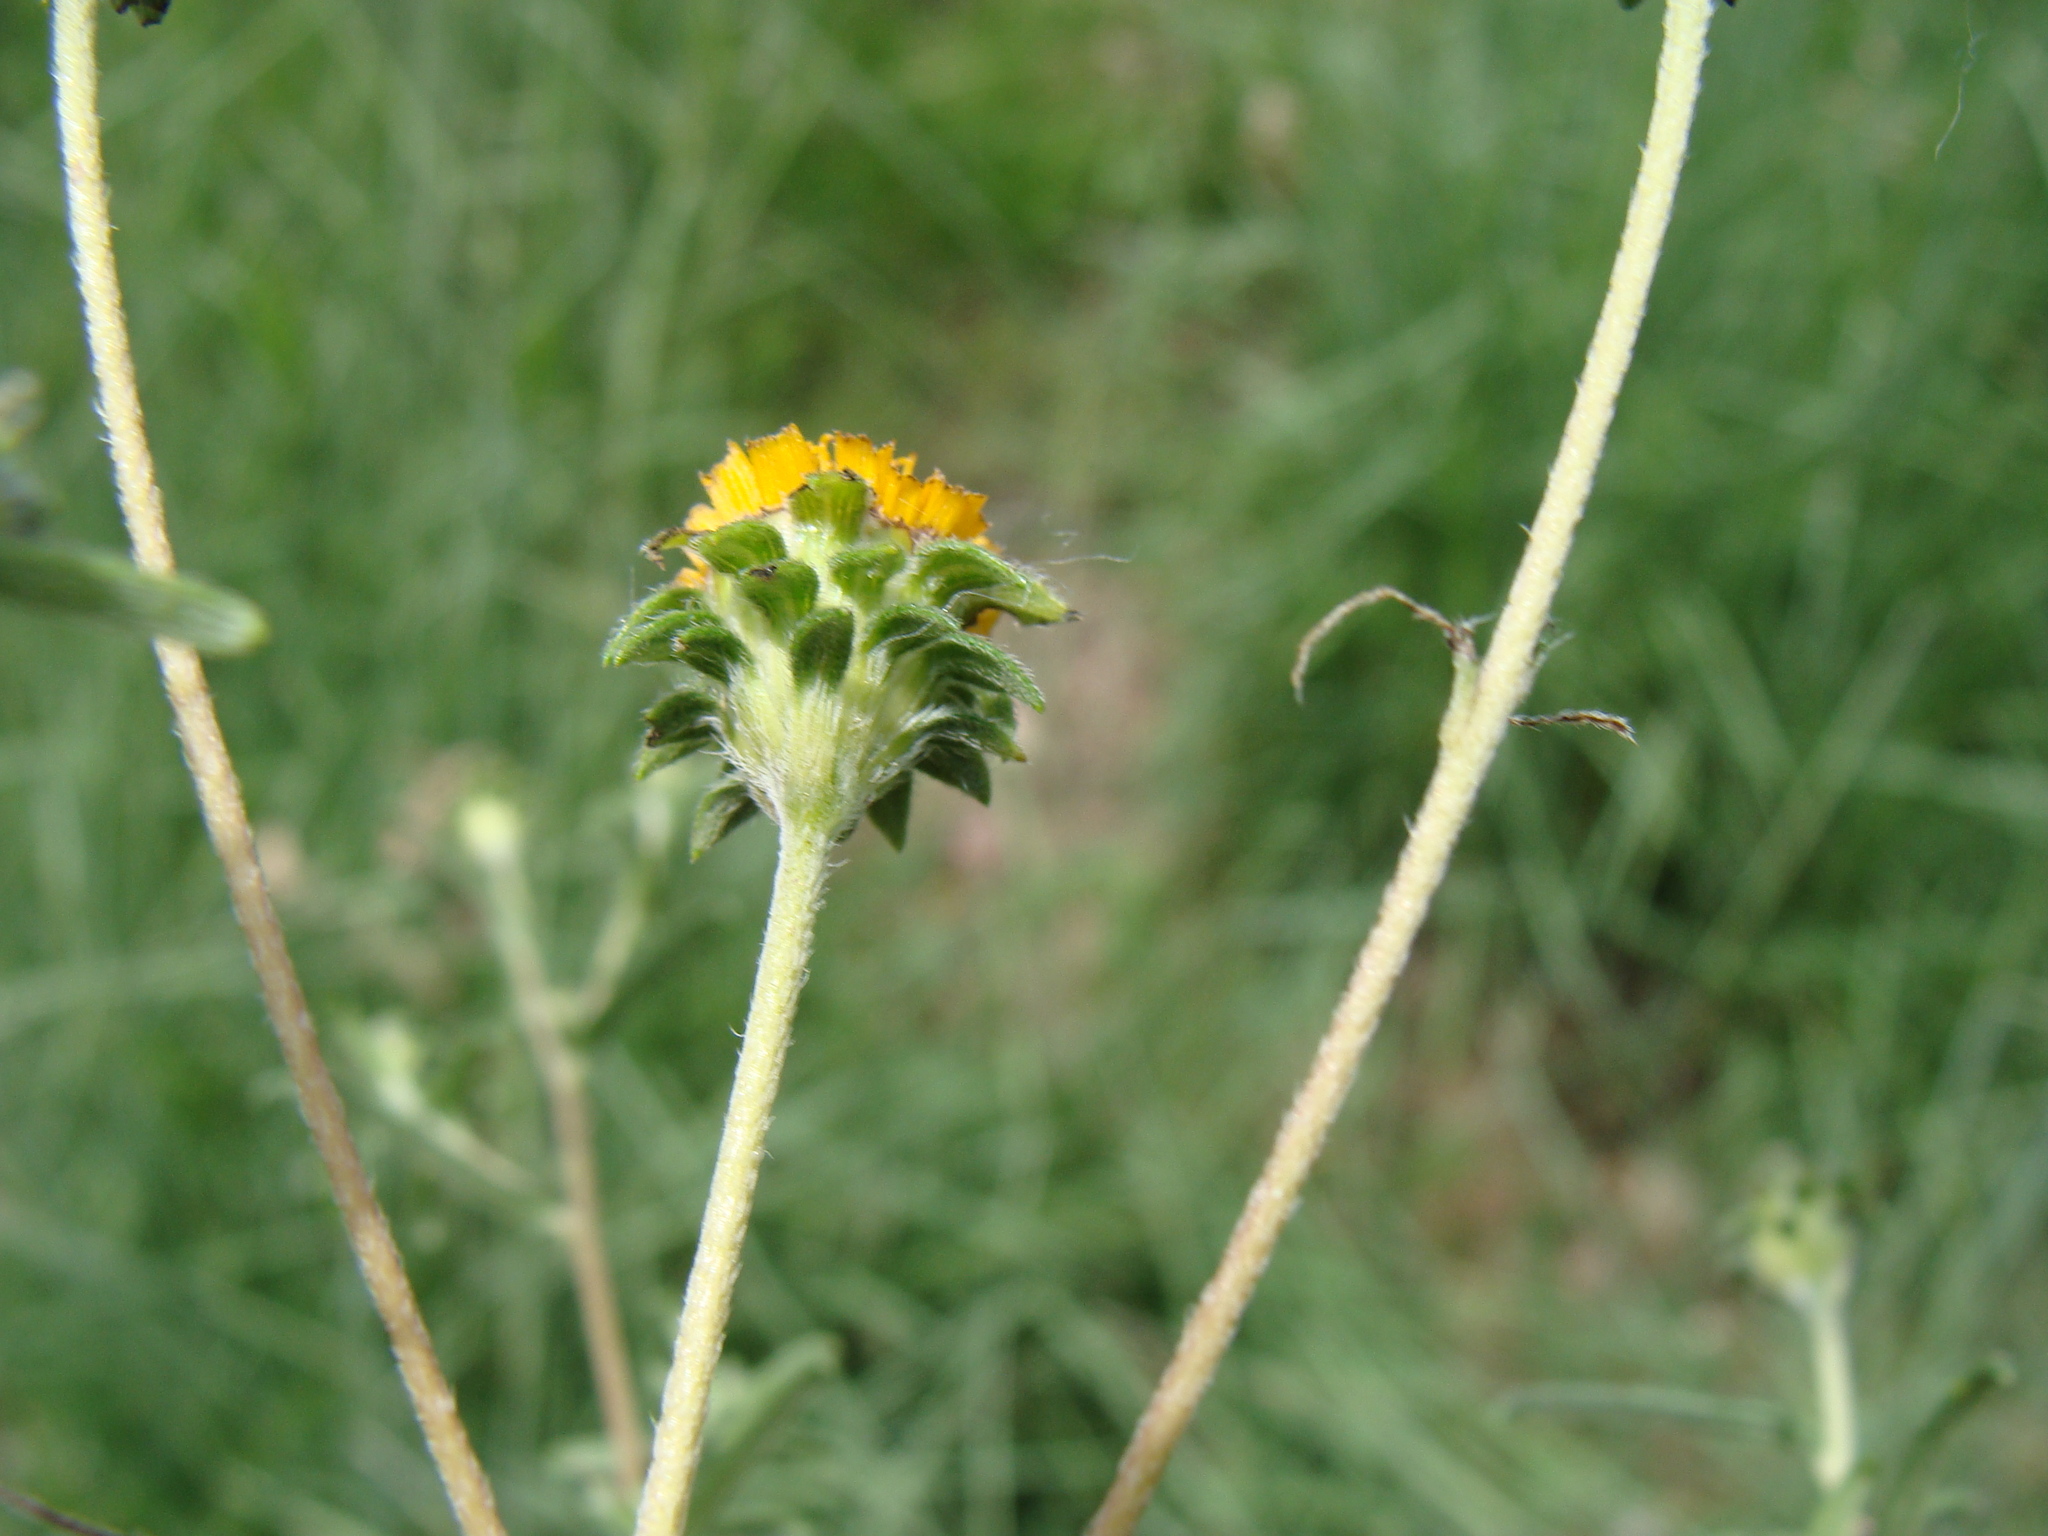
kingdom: Plantae
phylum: Tracheophyta
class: Magnoliopsida
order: Asterales
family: Asteraceae
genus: Aldama
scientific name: Aldama linearis
